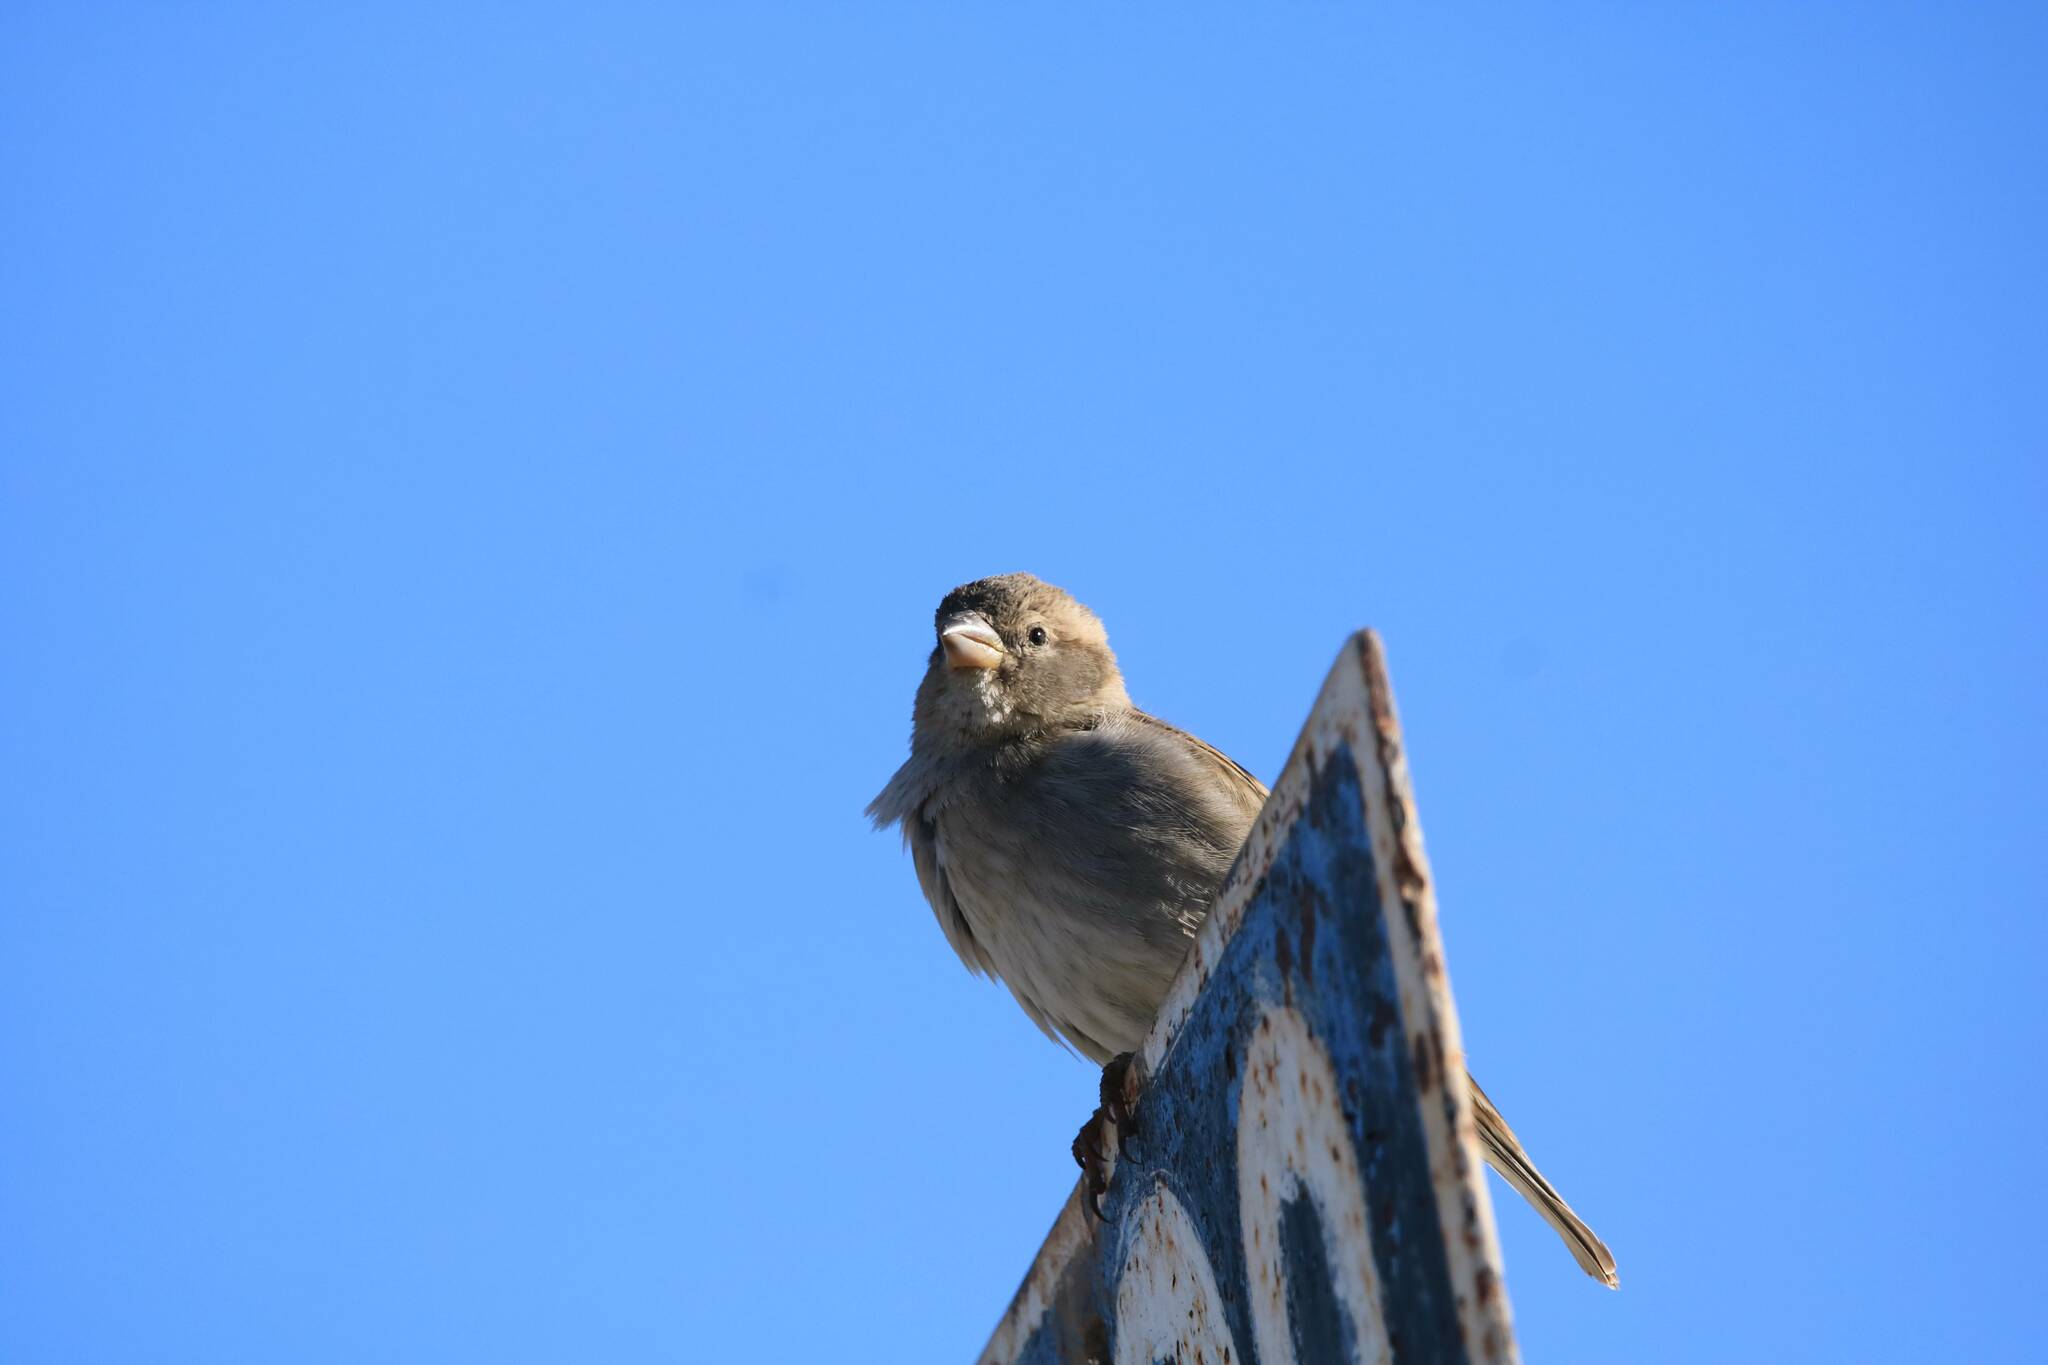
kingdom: Animalia
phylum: Chordata
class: Aves
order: Passeriformes
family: Passeridae
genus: Passer
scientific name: Passer domesticus
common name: House sparrow
